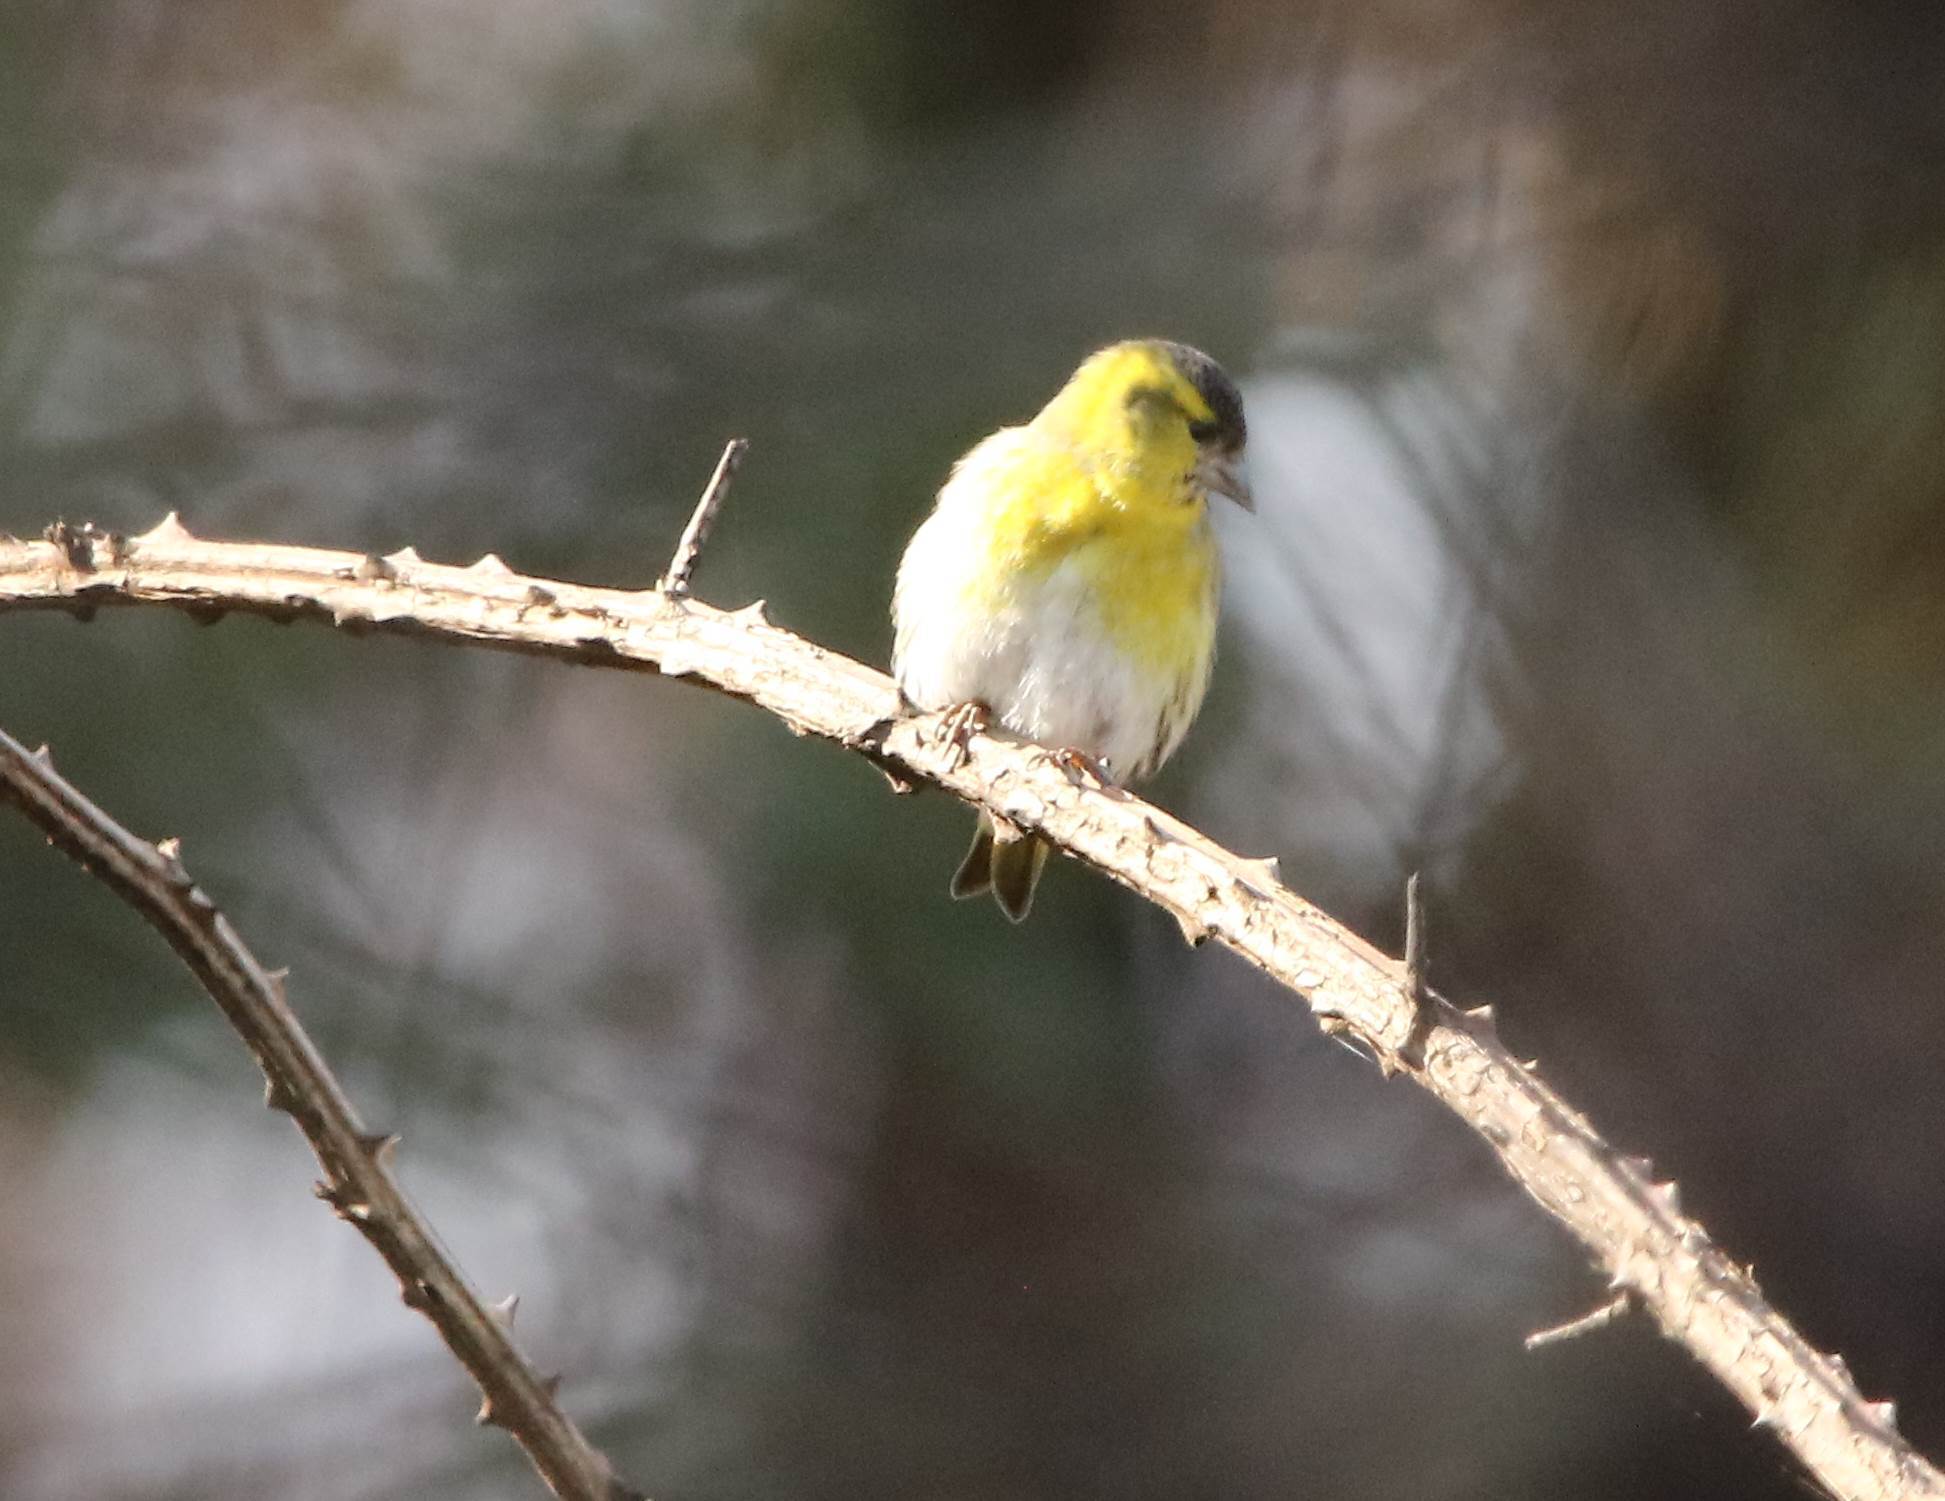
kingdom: Animalia
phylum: Chordata
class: Aves
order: Passeriformes
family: Fringillidae
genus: Spinus
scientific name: Spinus spinus
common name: Eurasian siskin
